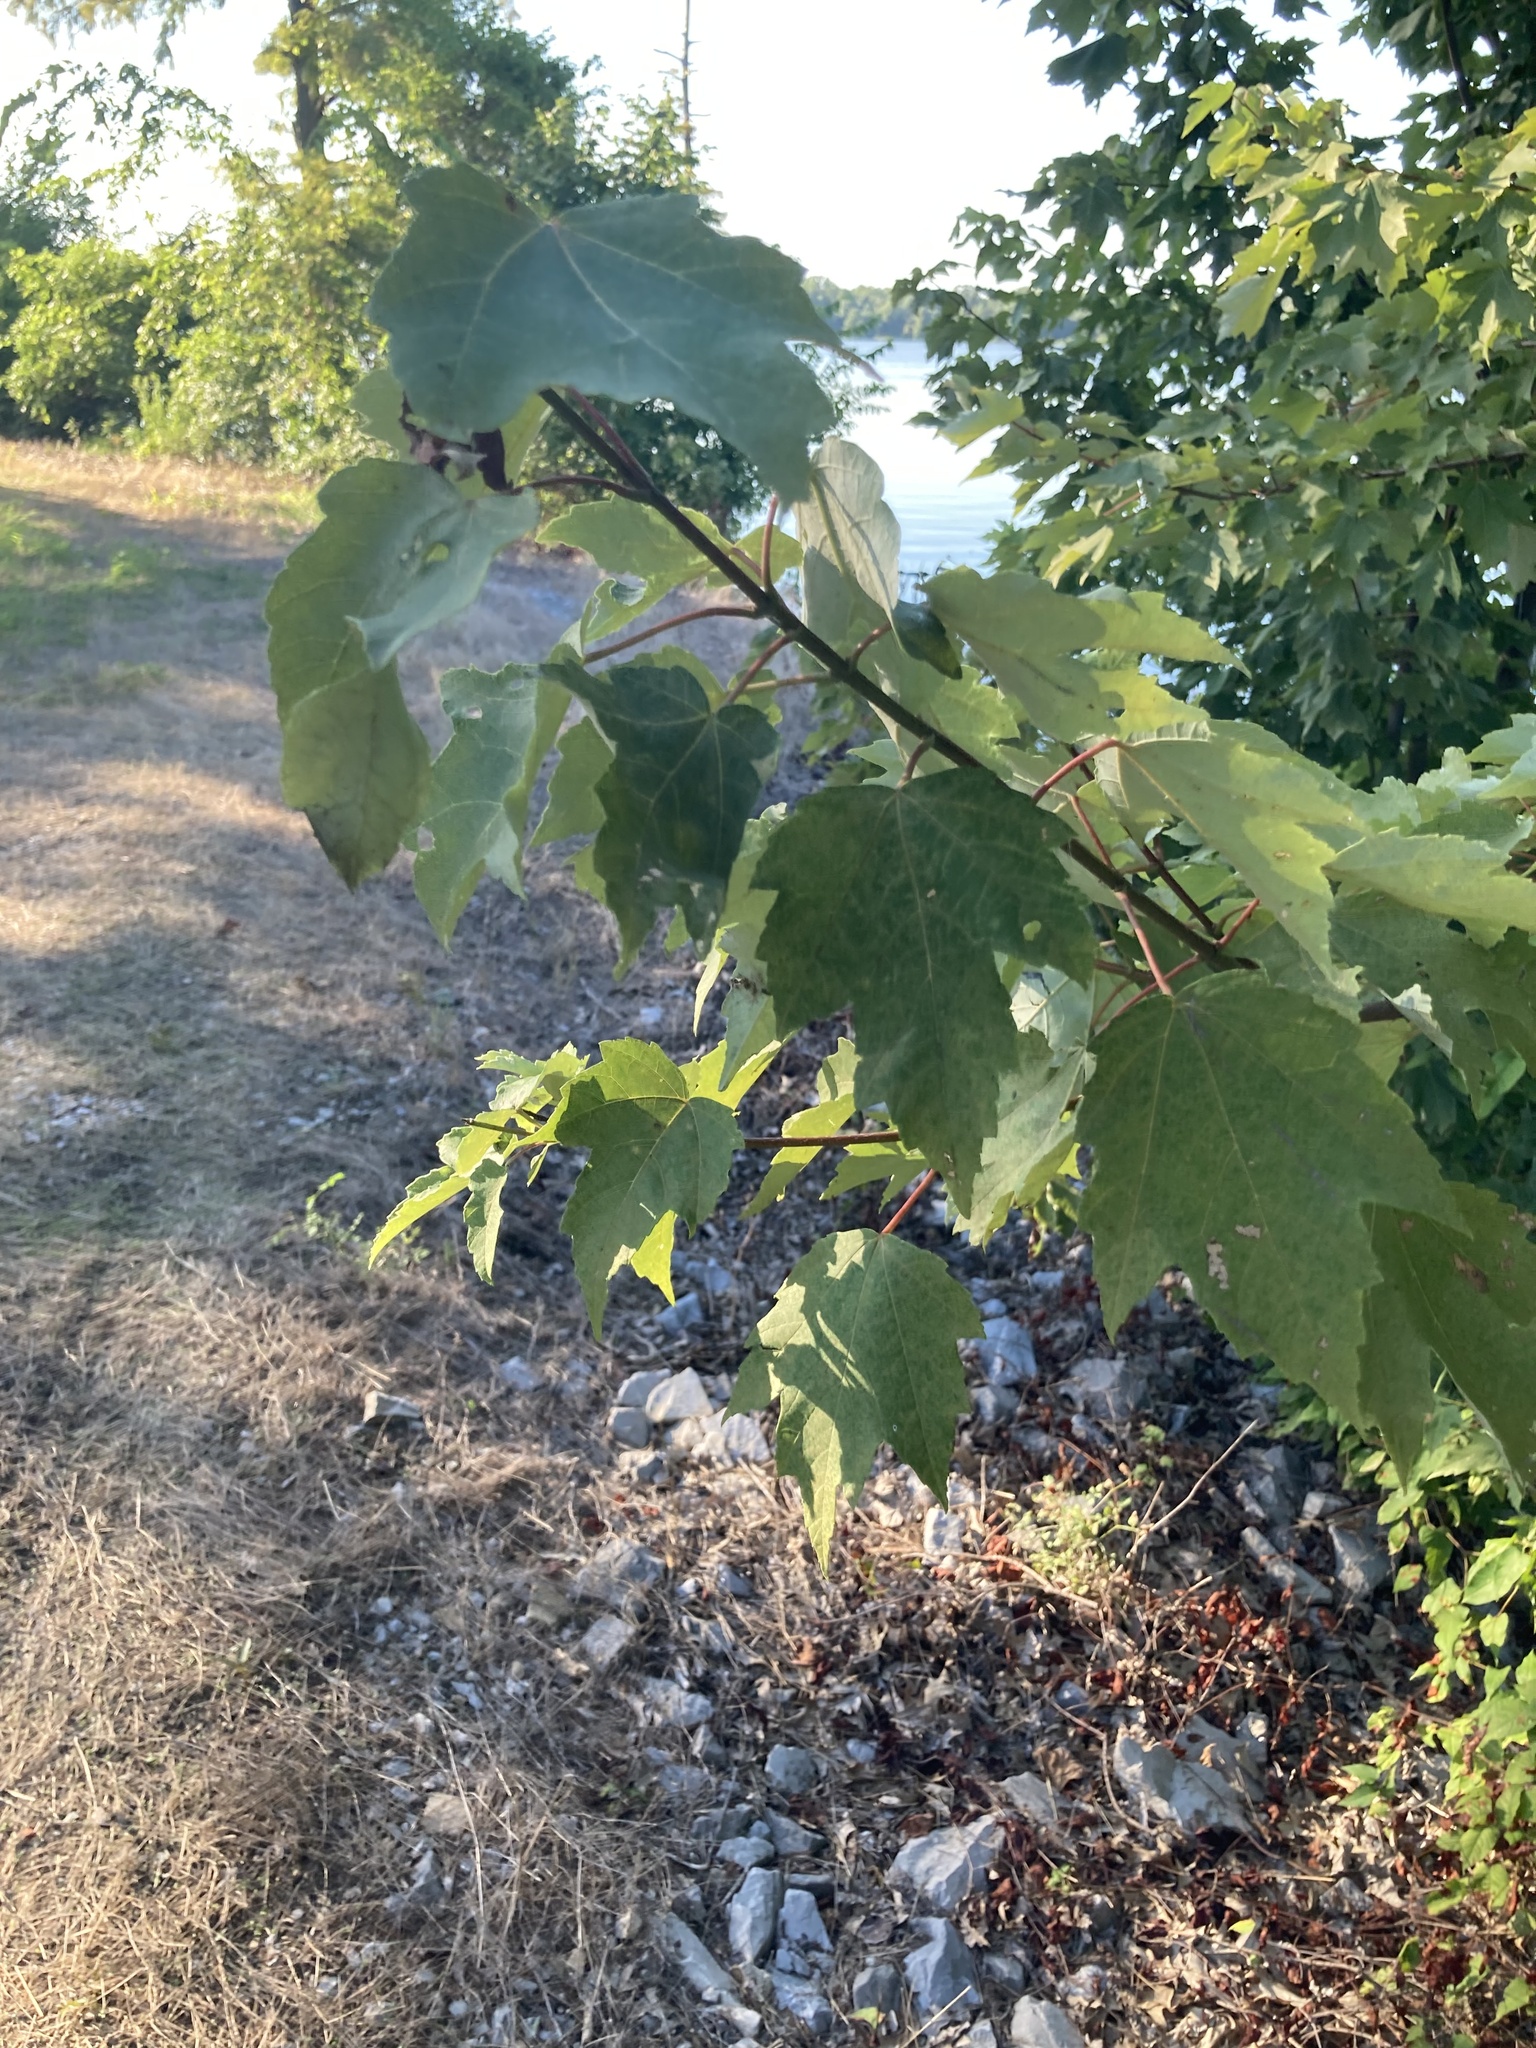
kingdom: Plantae
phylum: Tracheophyta
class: Magnoliopsida
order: Sapindales
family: Sapindaceae
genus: Acer
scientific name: Acer rubrum
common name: Red maple
